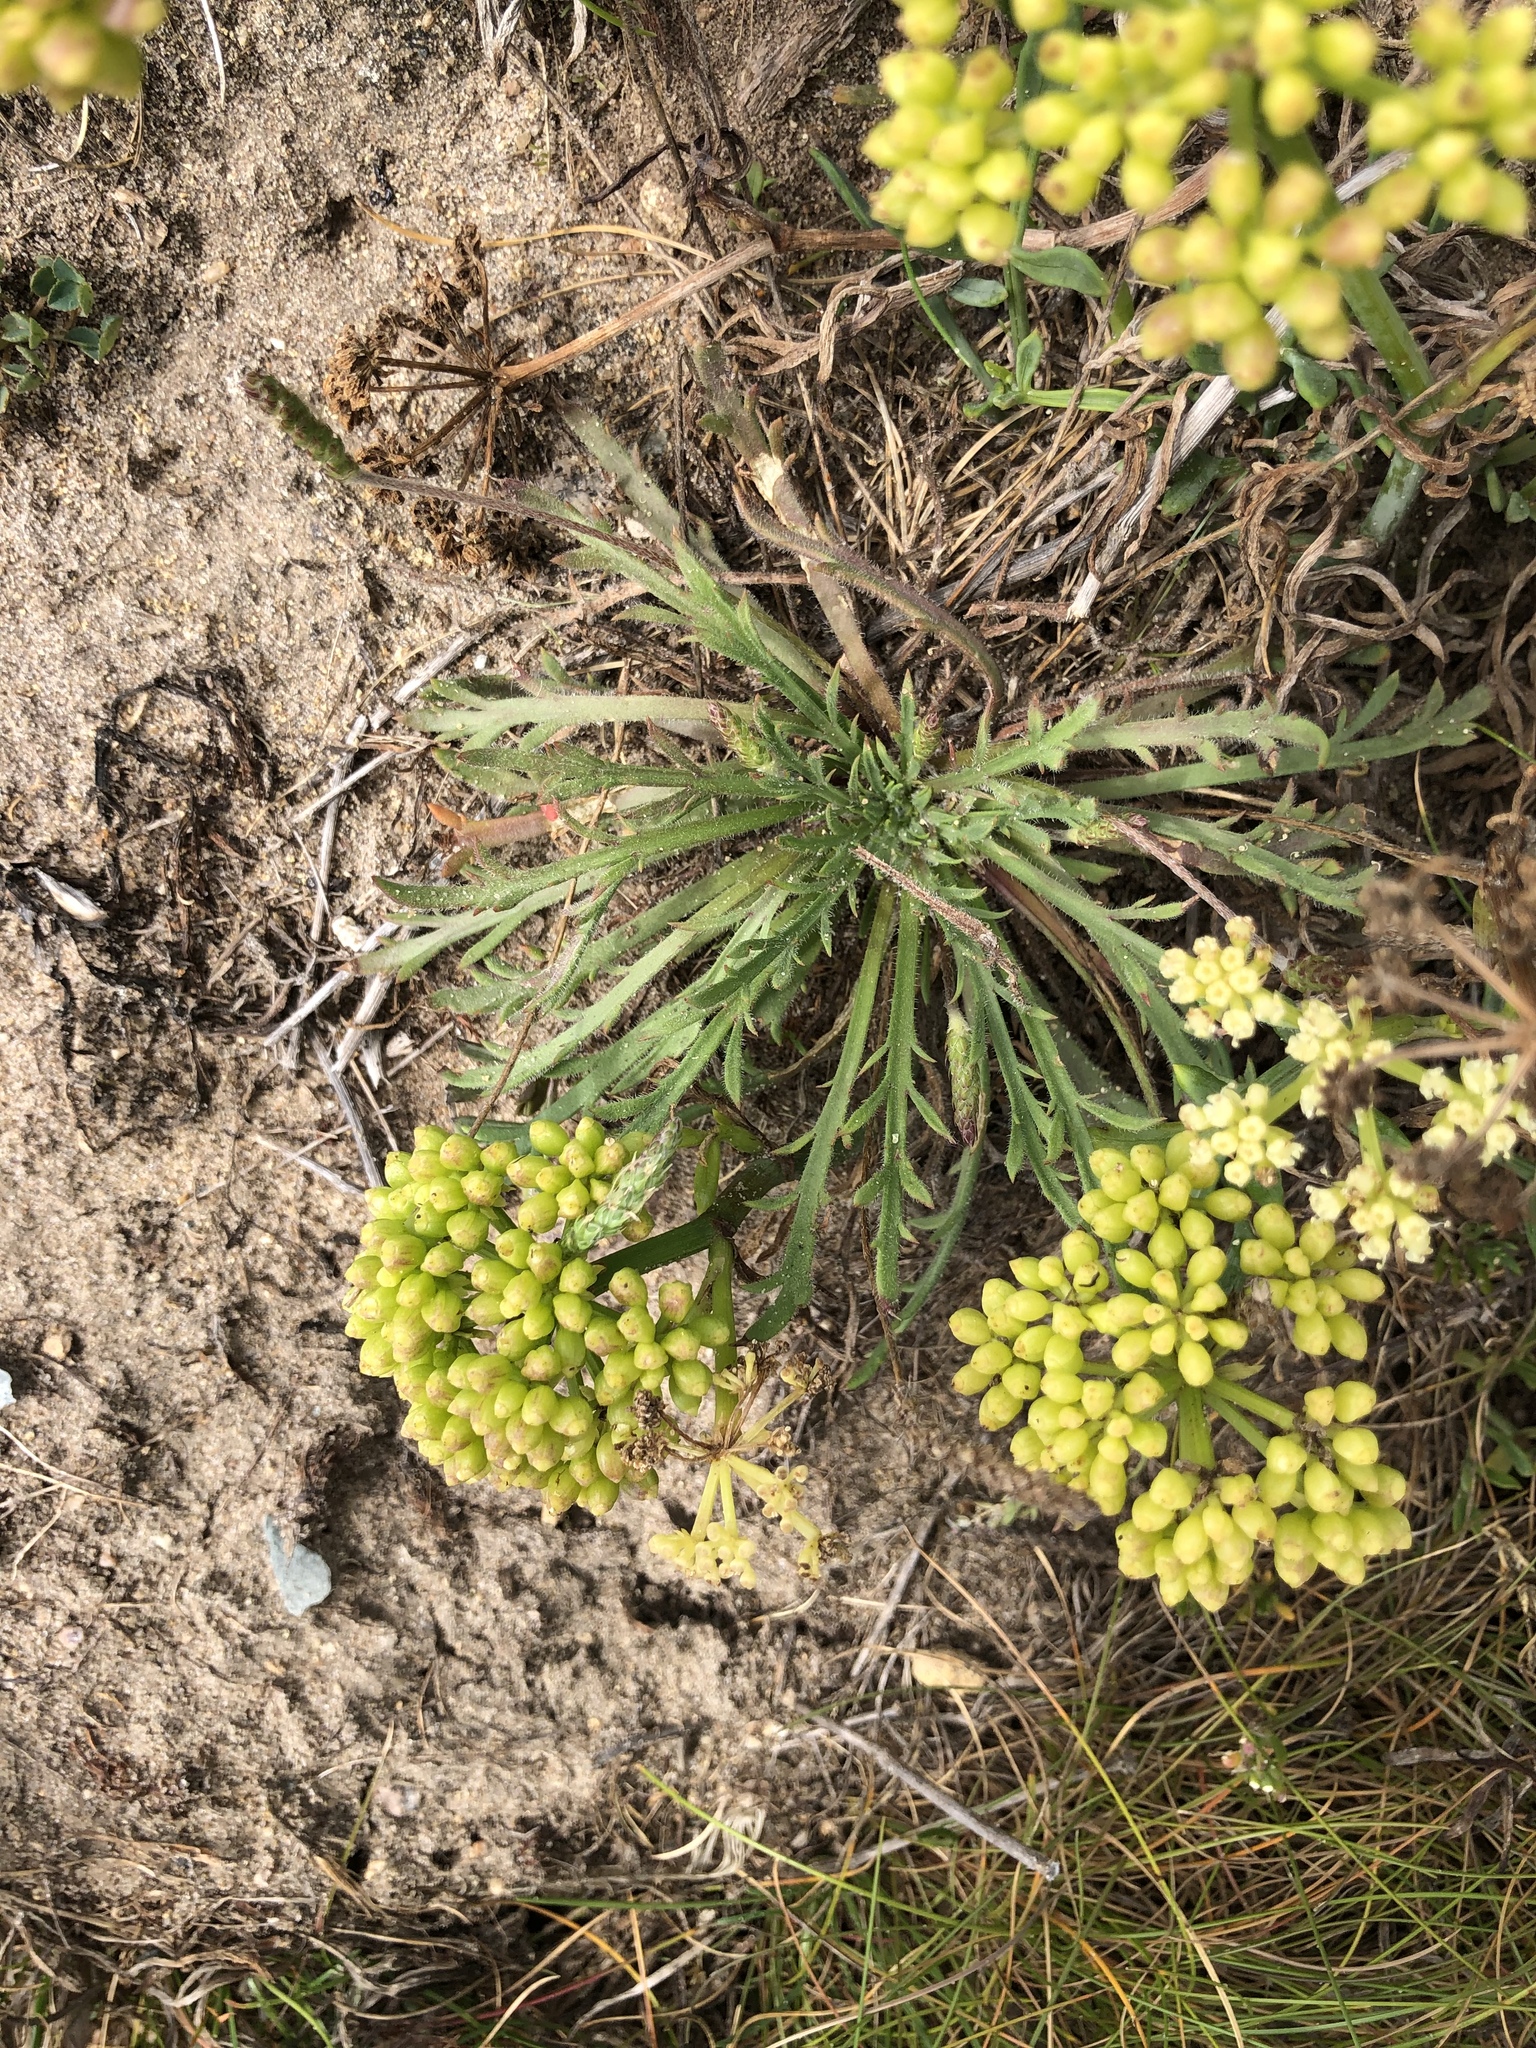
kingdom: Plantae
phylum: Tracheophyta
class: Magnoliopsida
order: Apiales
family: Apiaceae
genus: Crithmum
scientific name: Crithmum maritimum
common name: Rock samphire
